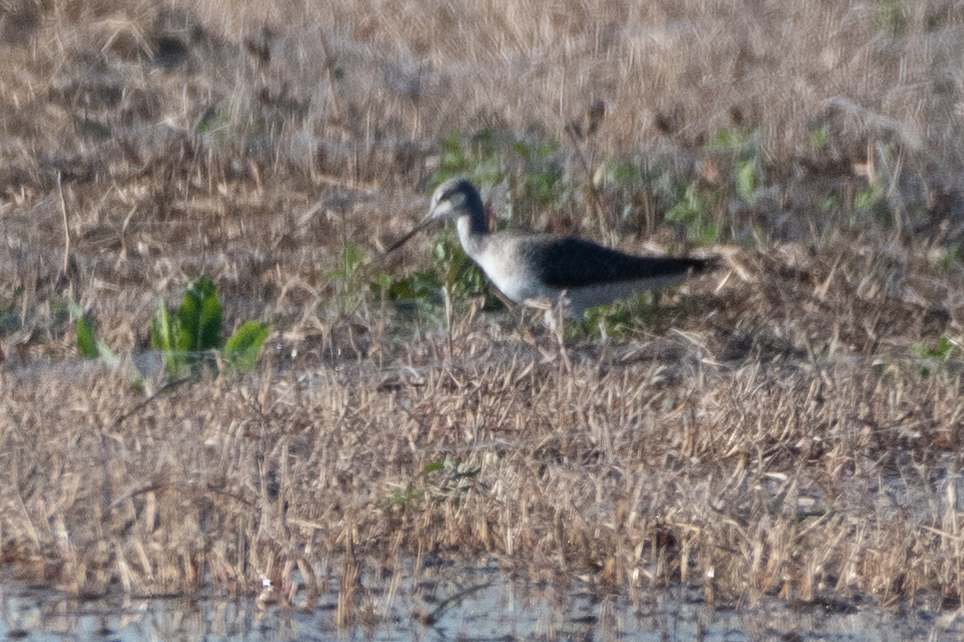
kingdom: Animalia
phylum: Chordata
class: Aves
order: Charadriiformes
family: Scolopacidae
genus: Tringa
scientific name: Tringa melanoleuca
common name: Greater yellowlegs
